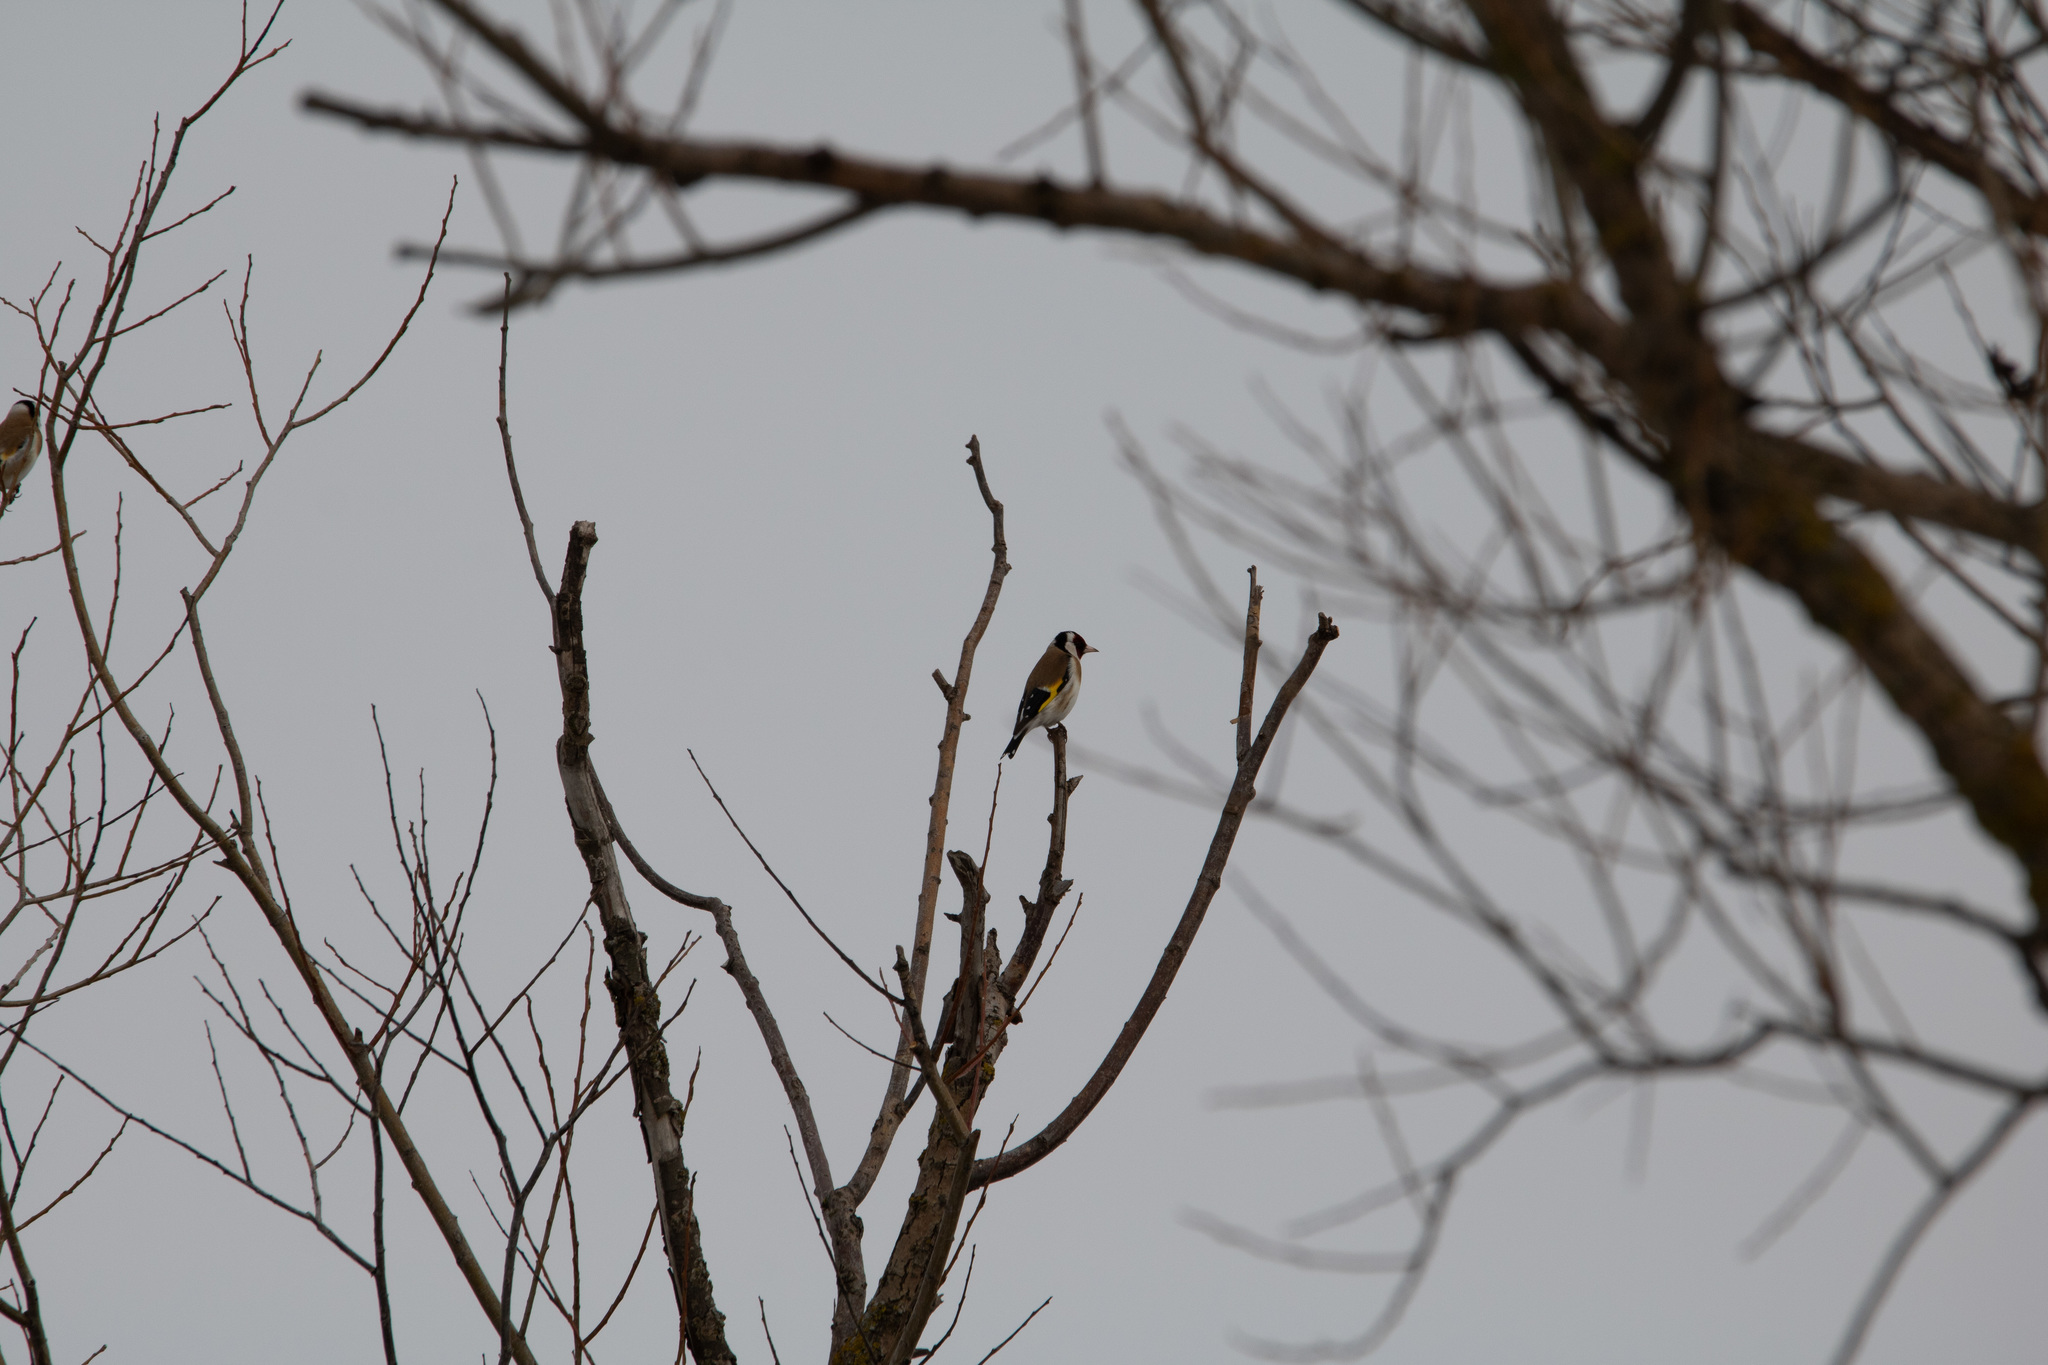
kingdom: Animalia
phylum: Chordata
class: Aves
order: Passeriformes
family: Fringillidae
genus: Carduelis
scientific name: Carduelis carduelis
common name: European goldfinch
